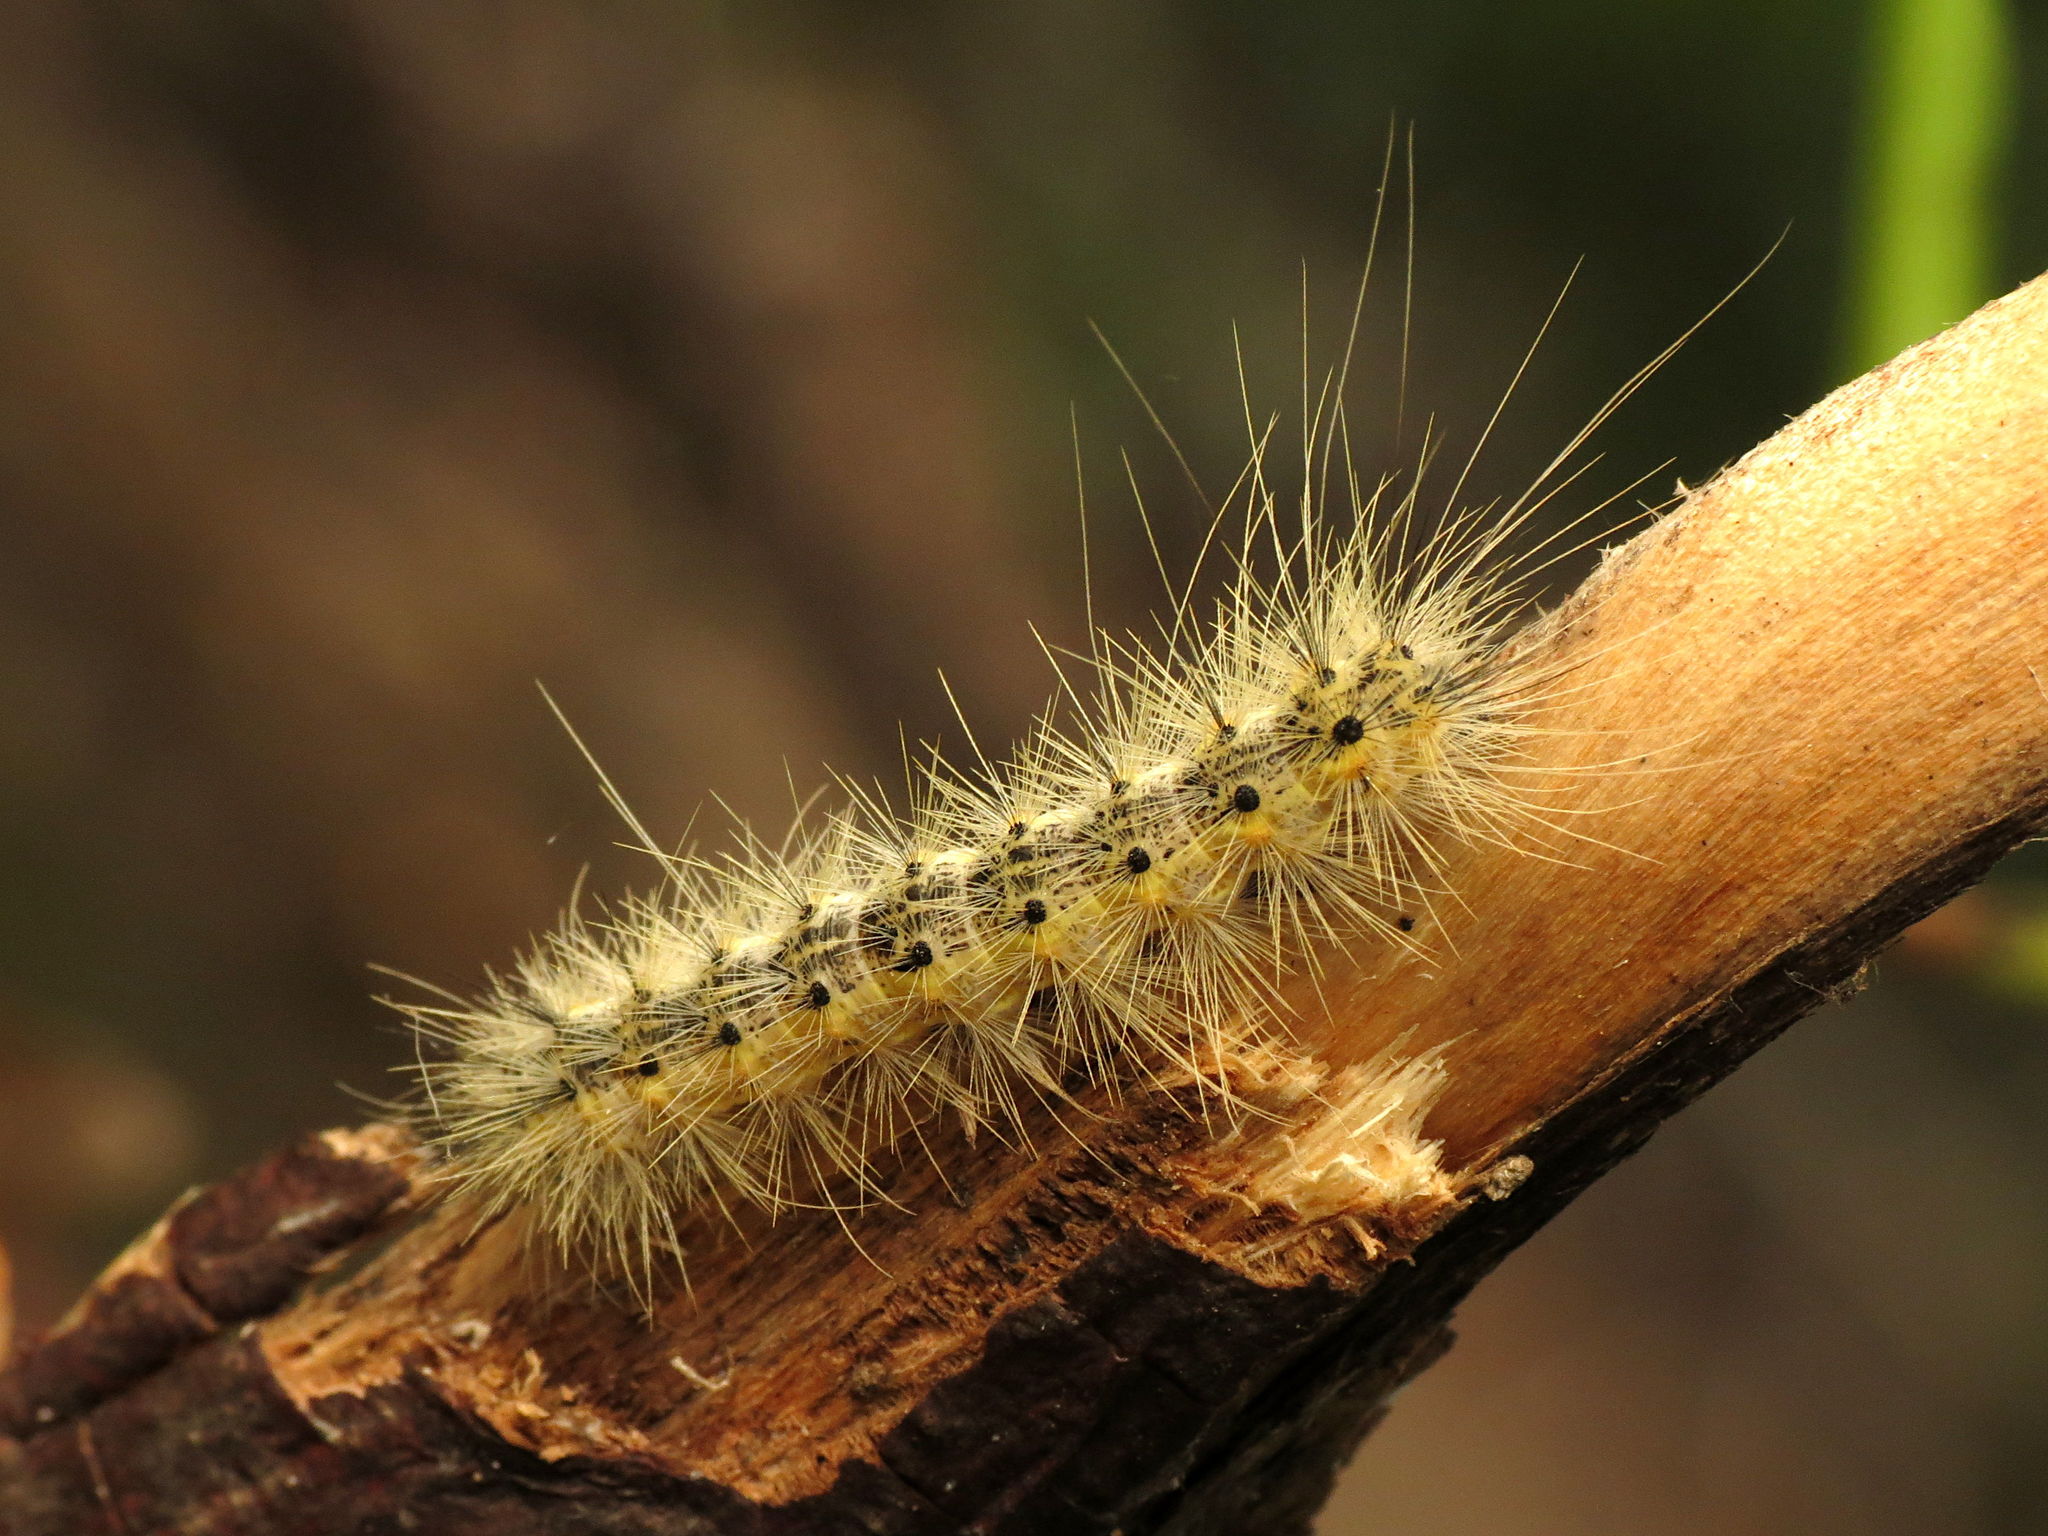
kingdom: Animalia
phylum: Arthropoda
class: Insecta
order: Lepidoptera
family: Erebidae
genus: Hyphantria
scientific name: Hyphantria cunea
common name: American white moth
